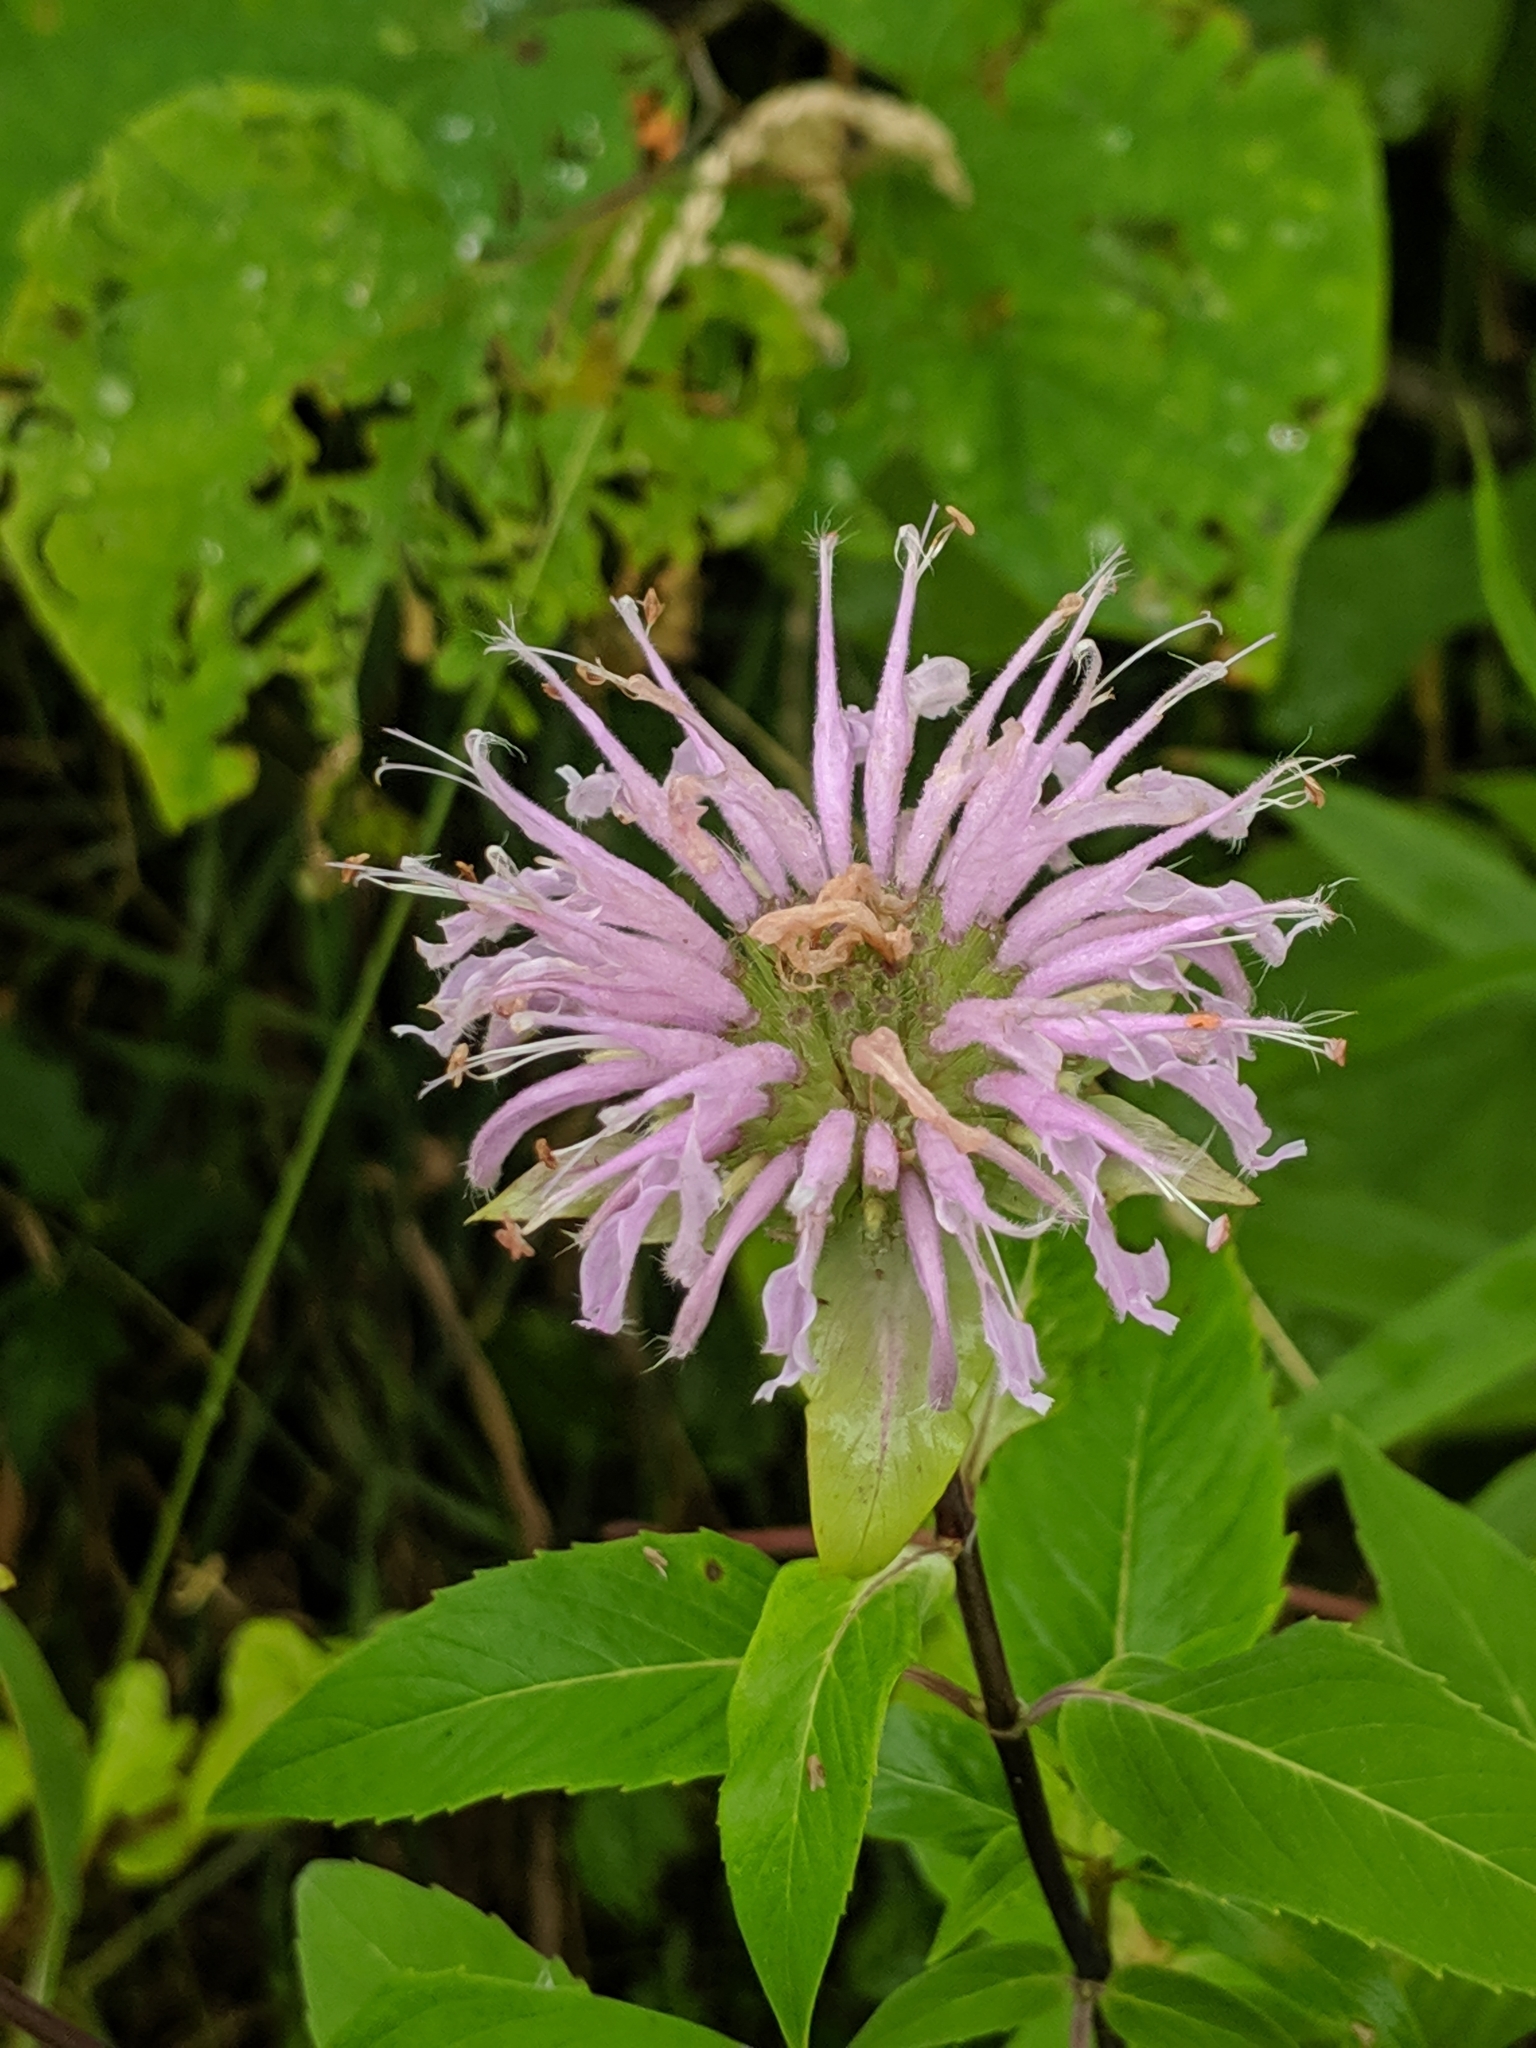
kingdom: Plantae
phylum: Tracheophyta
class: Magnoliopsida
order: Lamiales
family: Lamiaceae
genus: Monarda
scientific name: Monarda fistulosa
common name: Purple beebalm
